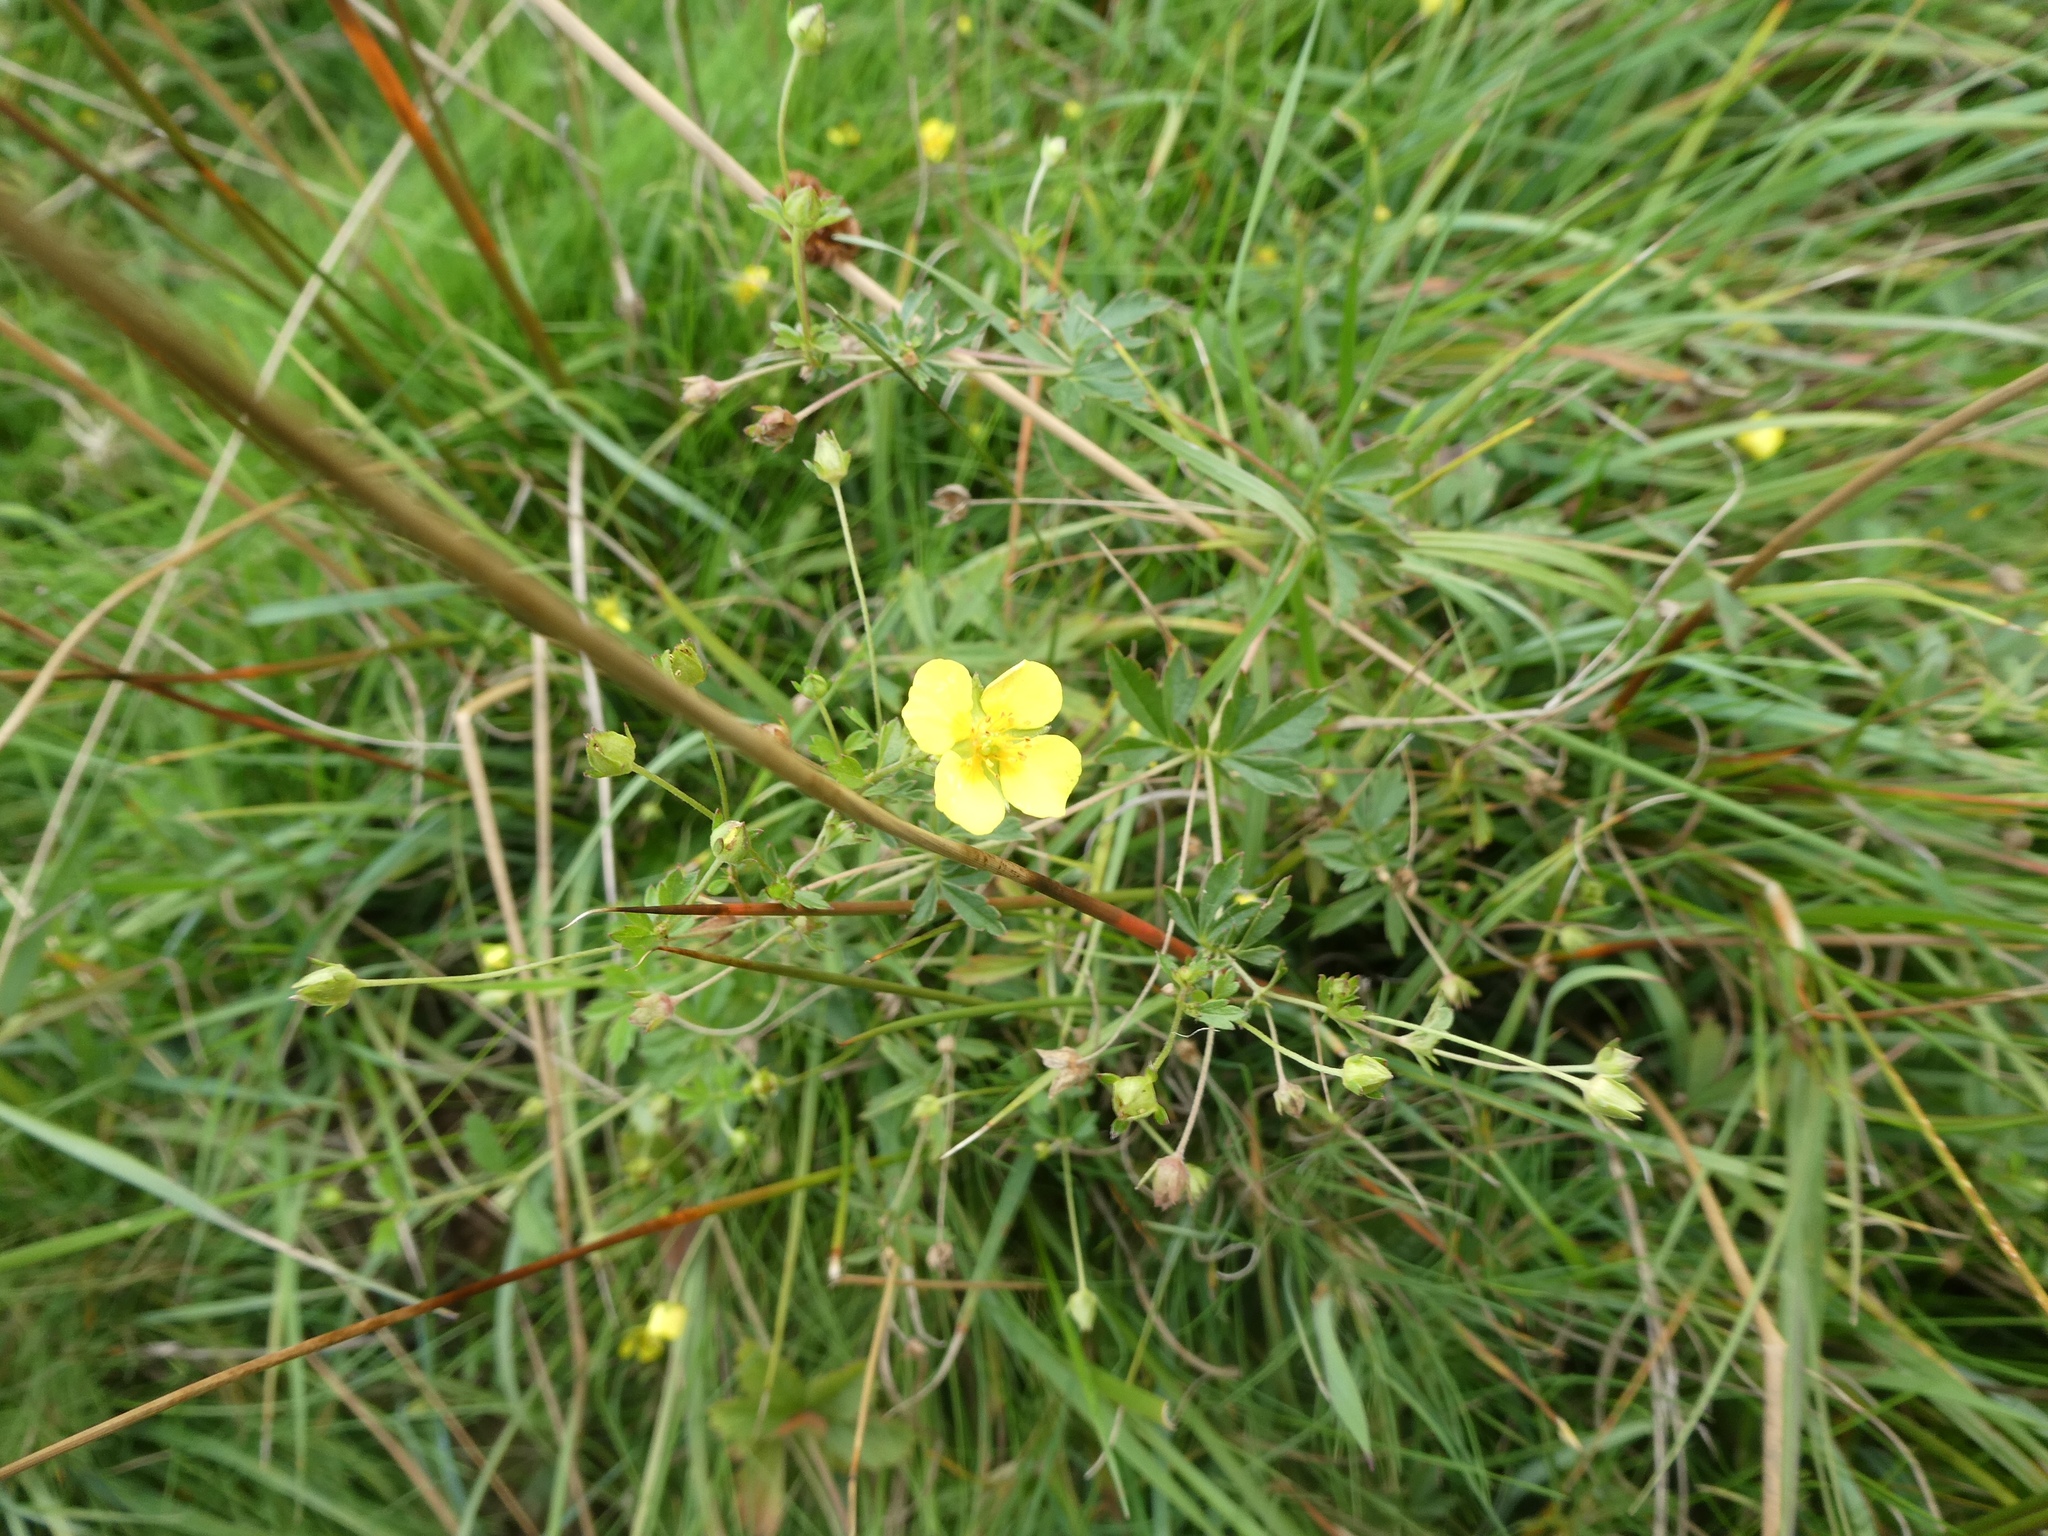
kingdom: Plantae
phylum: Tracheophyta
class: Magnoliopsida
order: Rosales
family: Rosaceae
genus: Potentilla
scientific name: Potentilla erecta
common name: Tormentil
